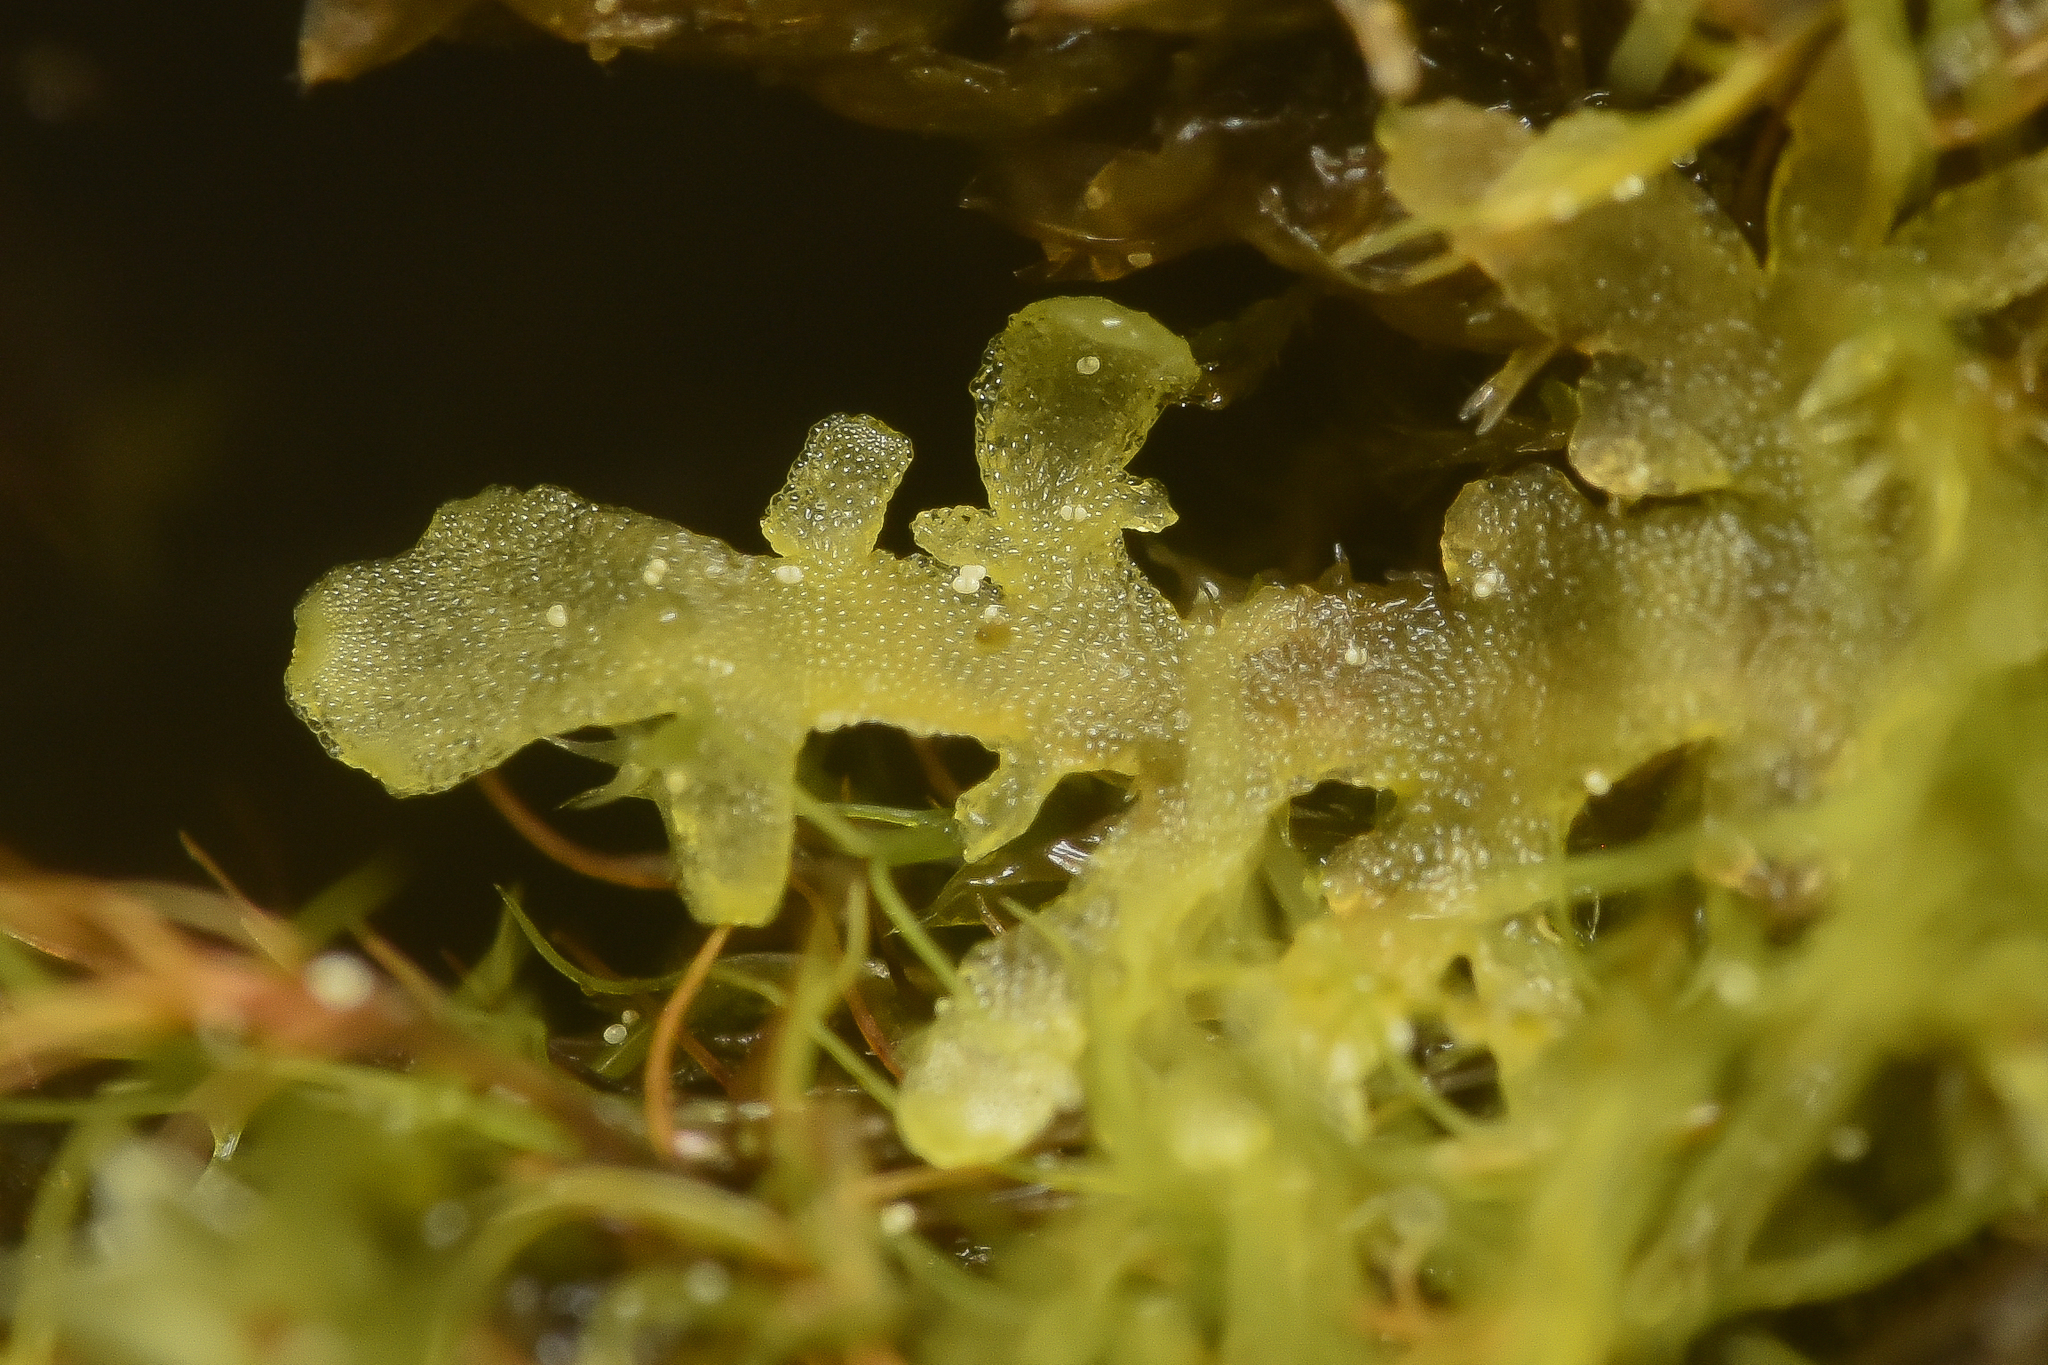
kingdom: Plantae
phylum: Marchantiophyta
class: Jungermanniopsida
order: Metzgeriales
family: Aneuraceae
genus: Riccardia
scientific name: Riccardia chamedryfolia
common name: Jagged germanderwort
